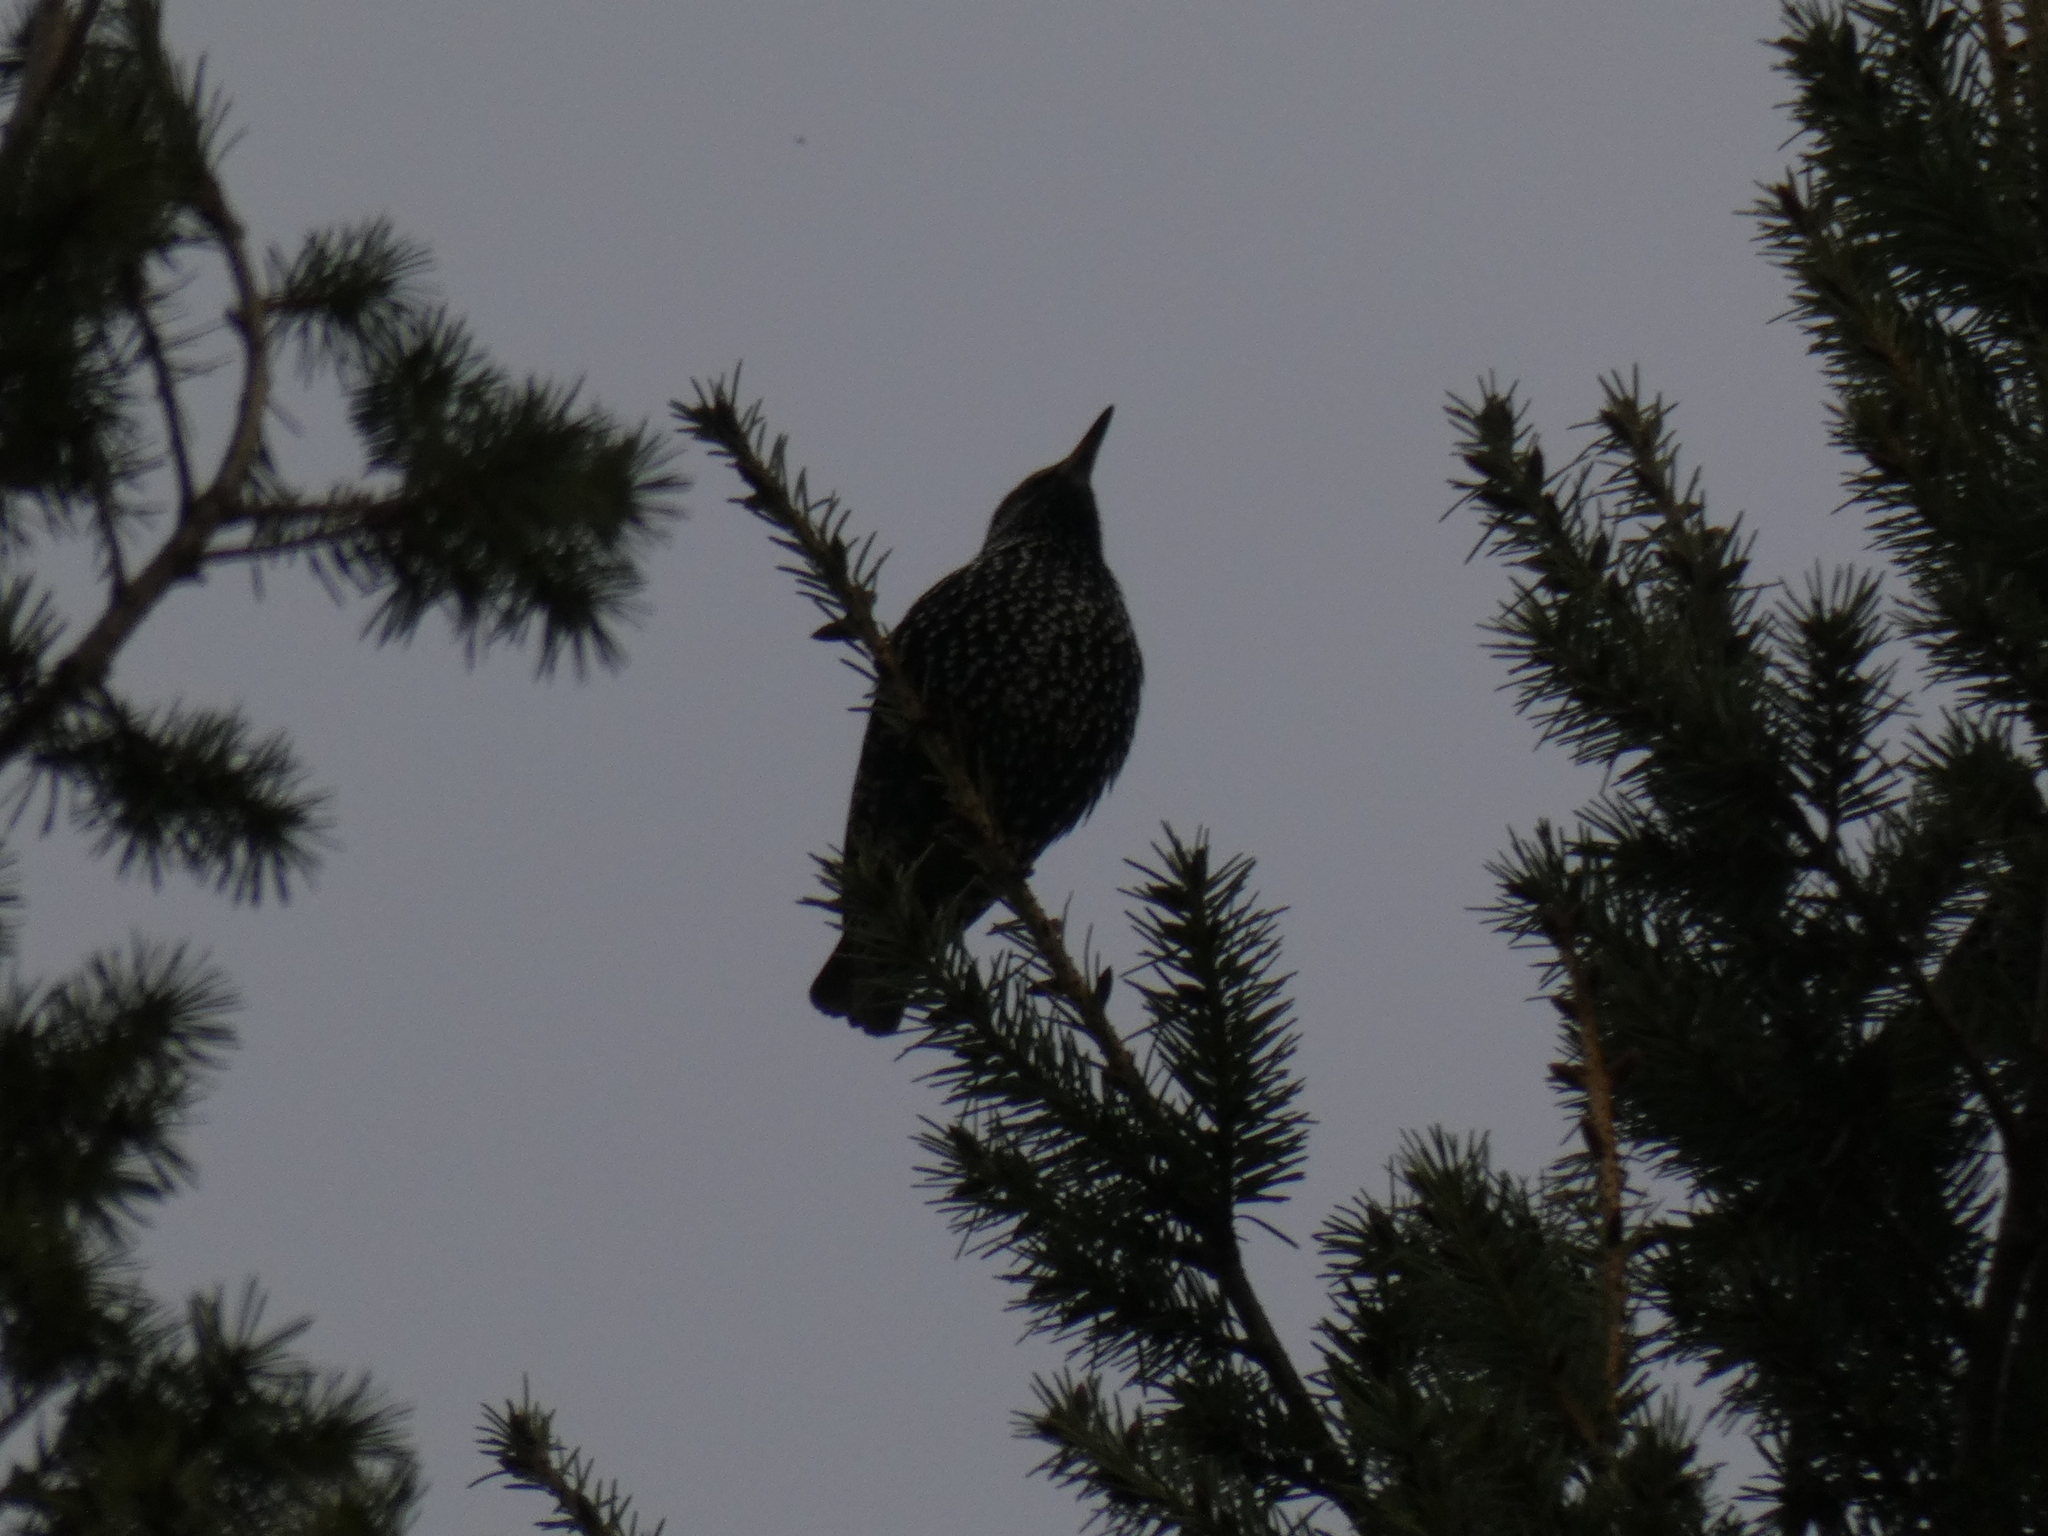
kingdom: Animalia
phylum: Chordata
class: Aves
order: Passeriformes
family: Sturnidae
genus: Sturnus
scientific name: Sturnus vulgaris
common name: Common starling
